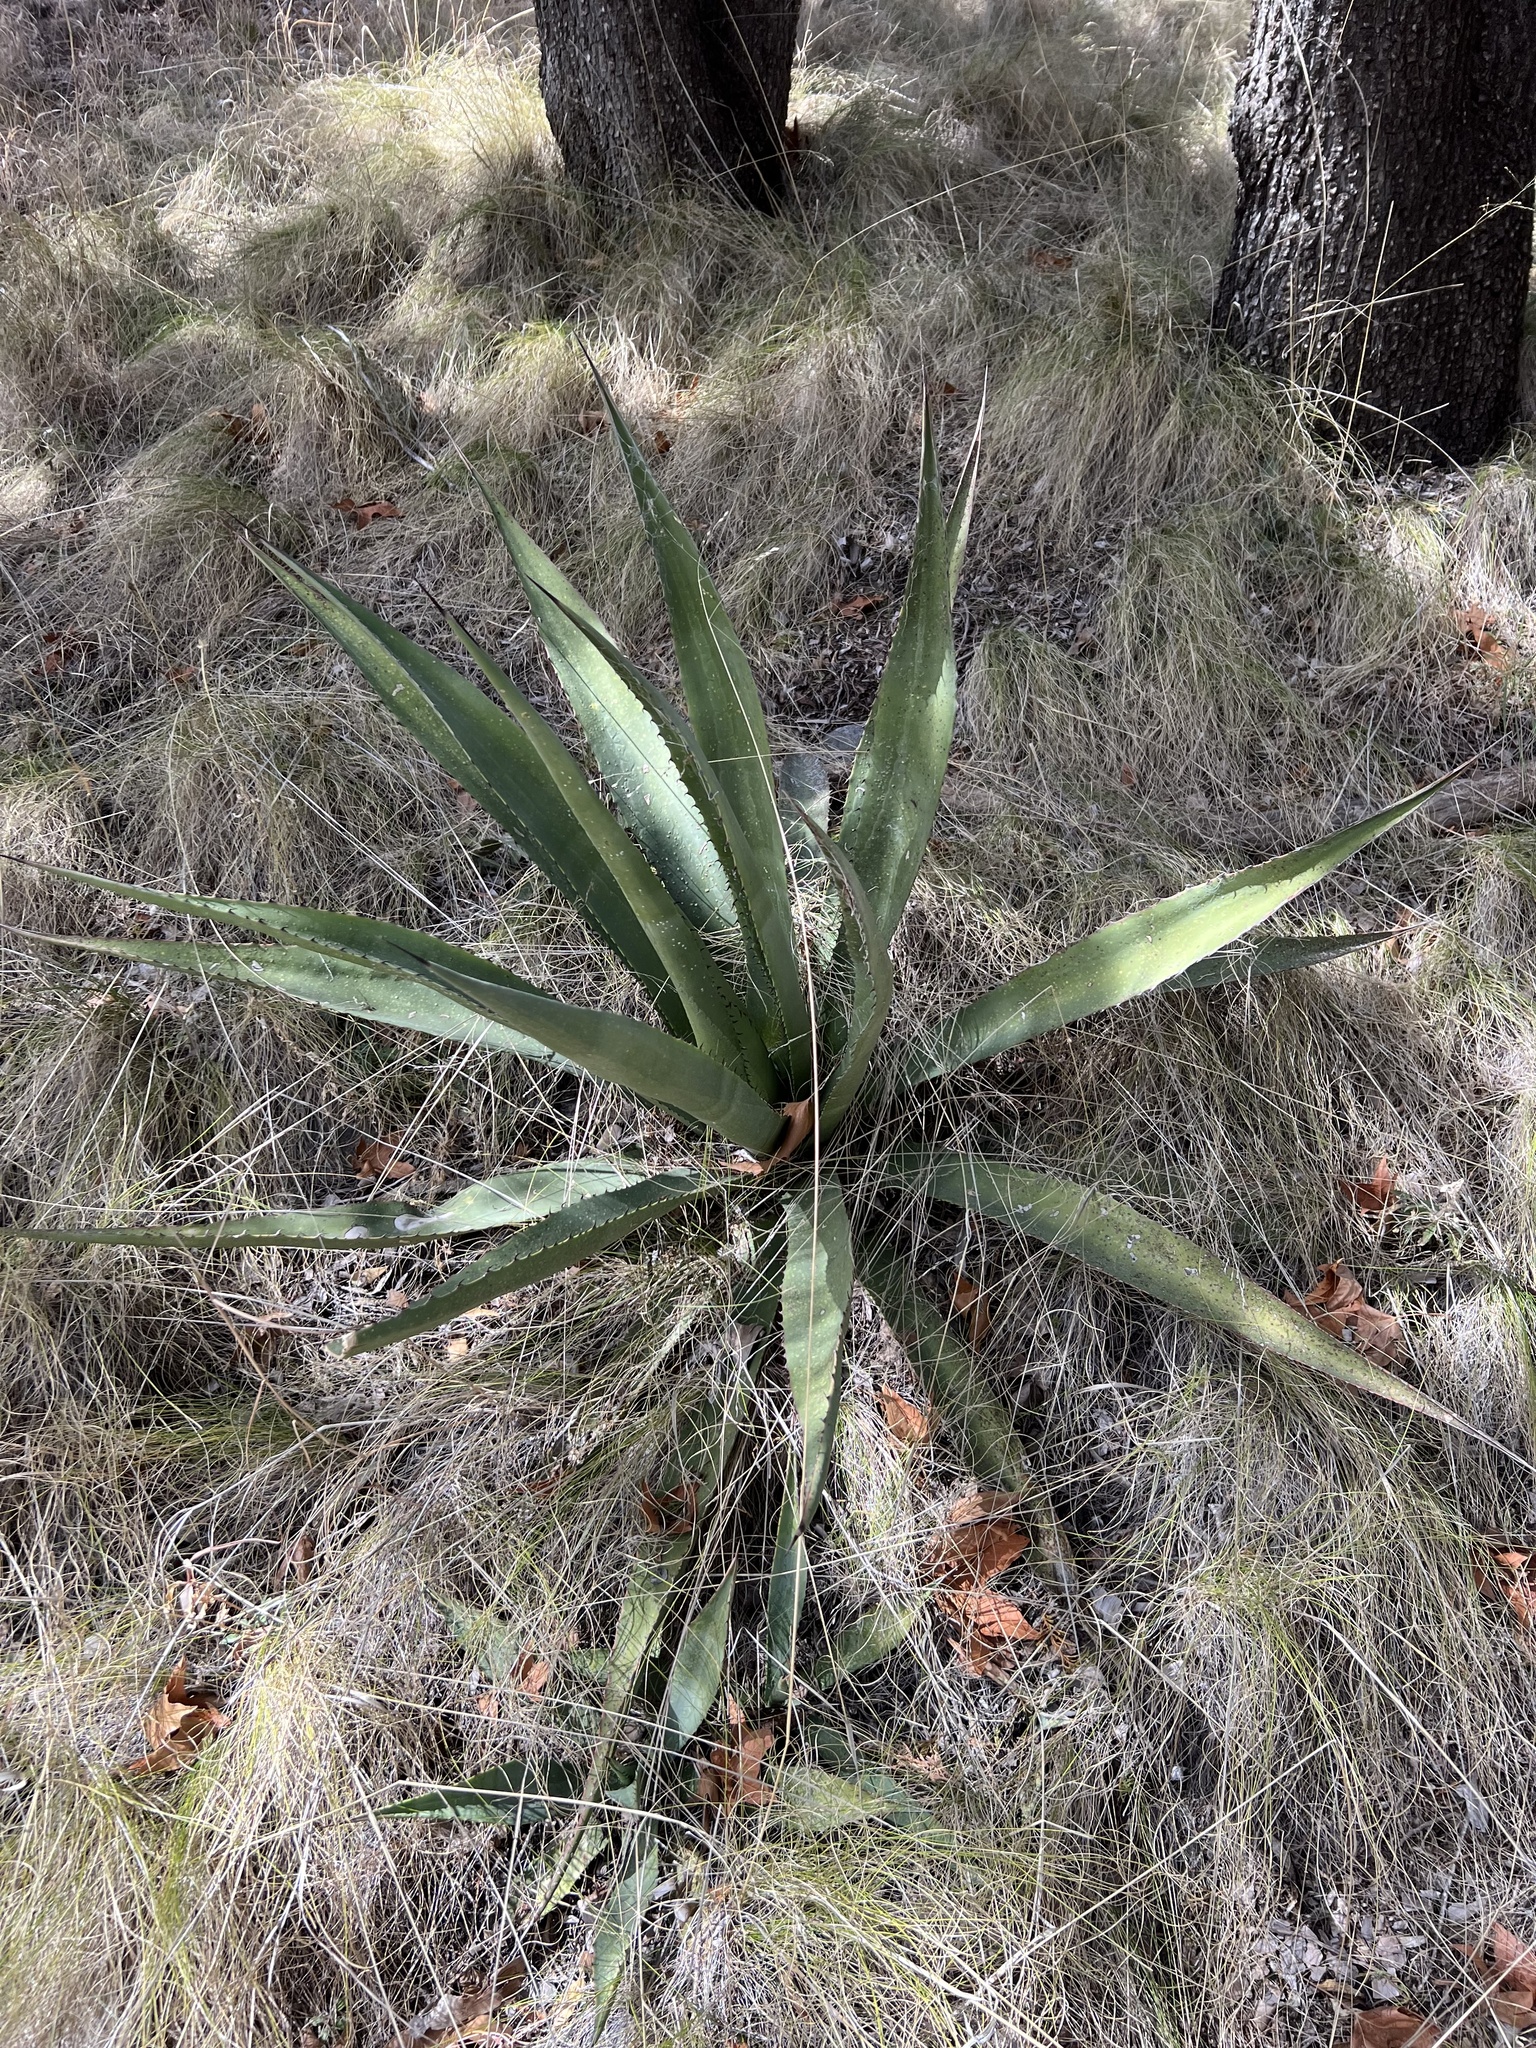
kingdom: Plantae
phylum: Tracheophyta
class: Liliopsida
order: Asparagales
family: Asparagaceae
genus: Agave
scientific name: Agave palmeri
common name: Palmer agave
